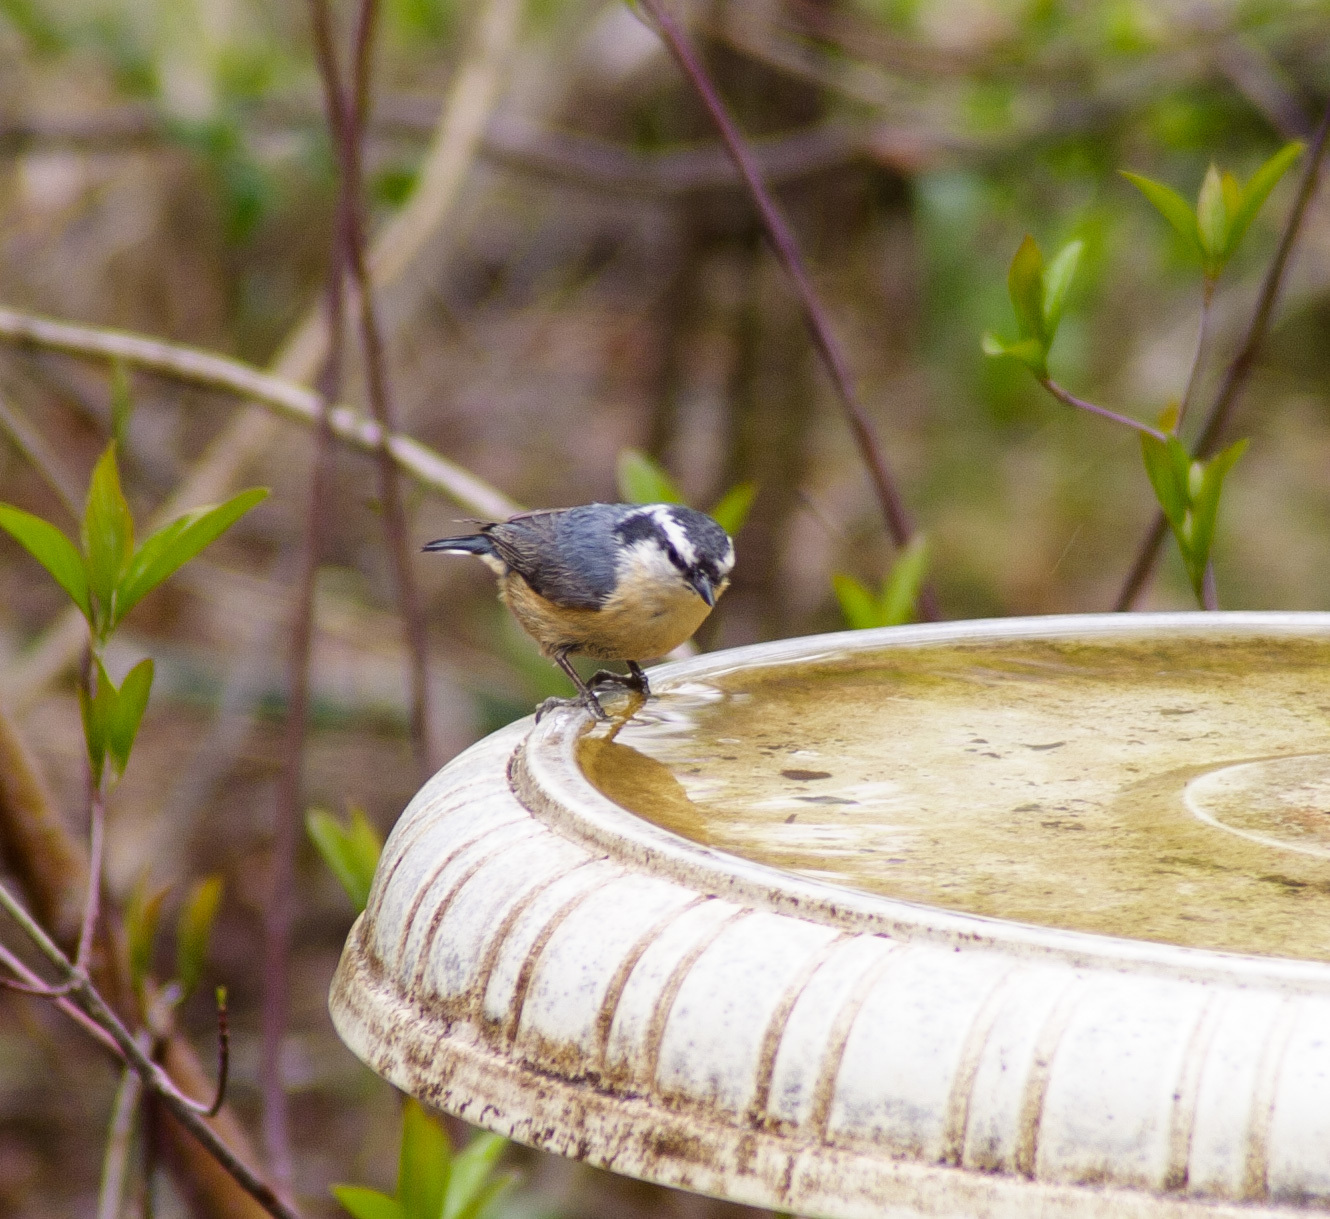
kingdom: Animalia
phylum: Chordata
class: Aves
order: Passeriformes
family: Sittidae
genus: Sitta
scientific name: Sitta canadensis
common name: Red-breasted nuthatch
